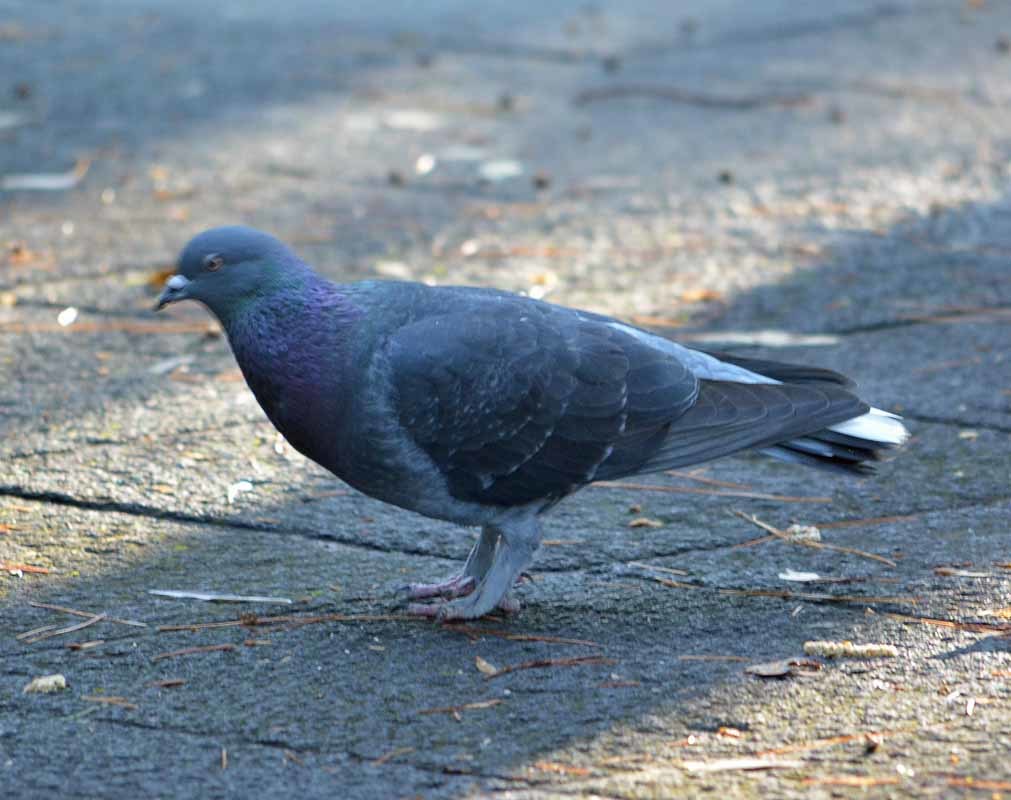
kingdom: Animalia
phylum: Chordata
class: Aves
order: Columbiformes
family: Columbidae
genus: Columba
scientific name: Columba livia
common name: Rock pigeon
